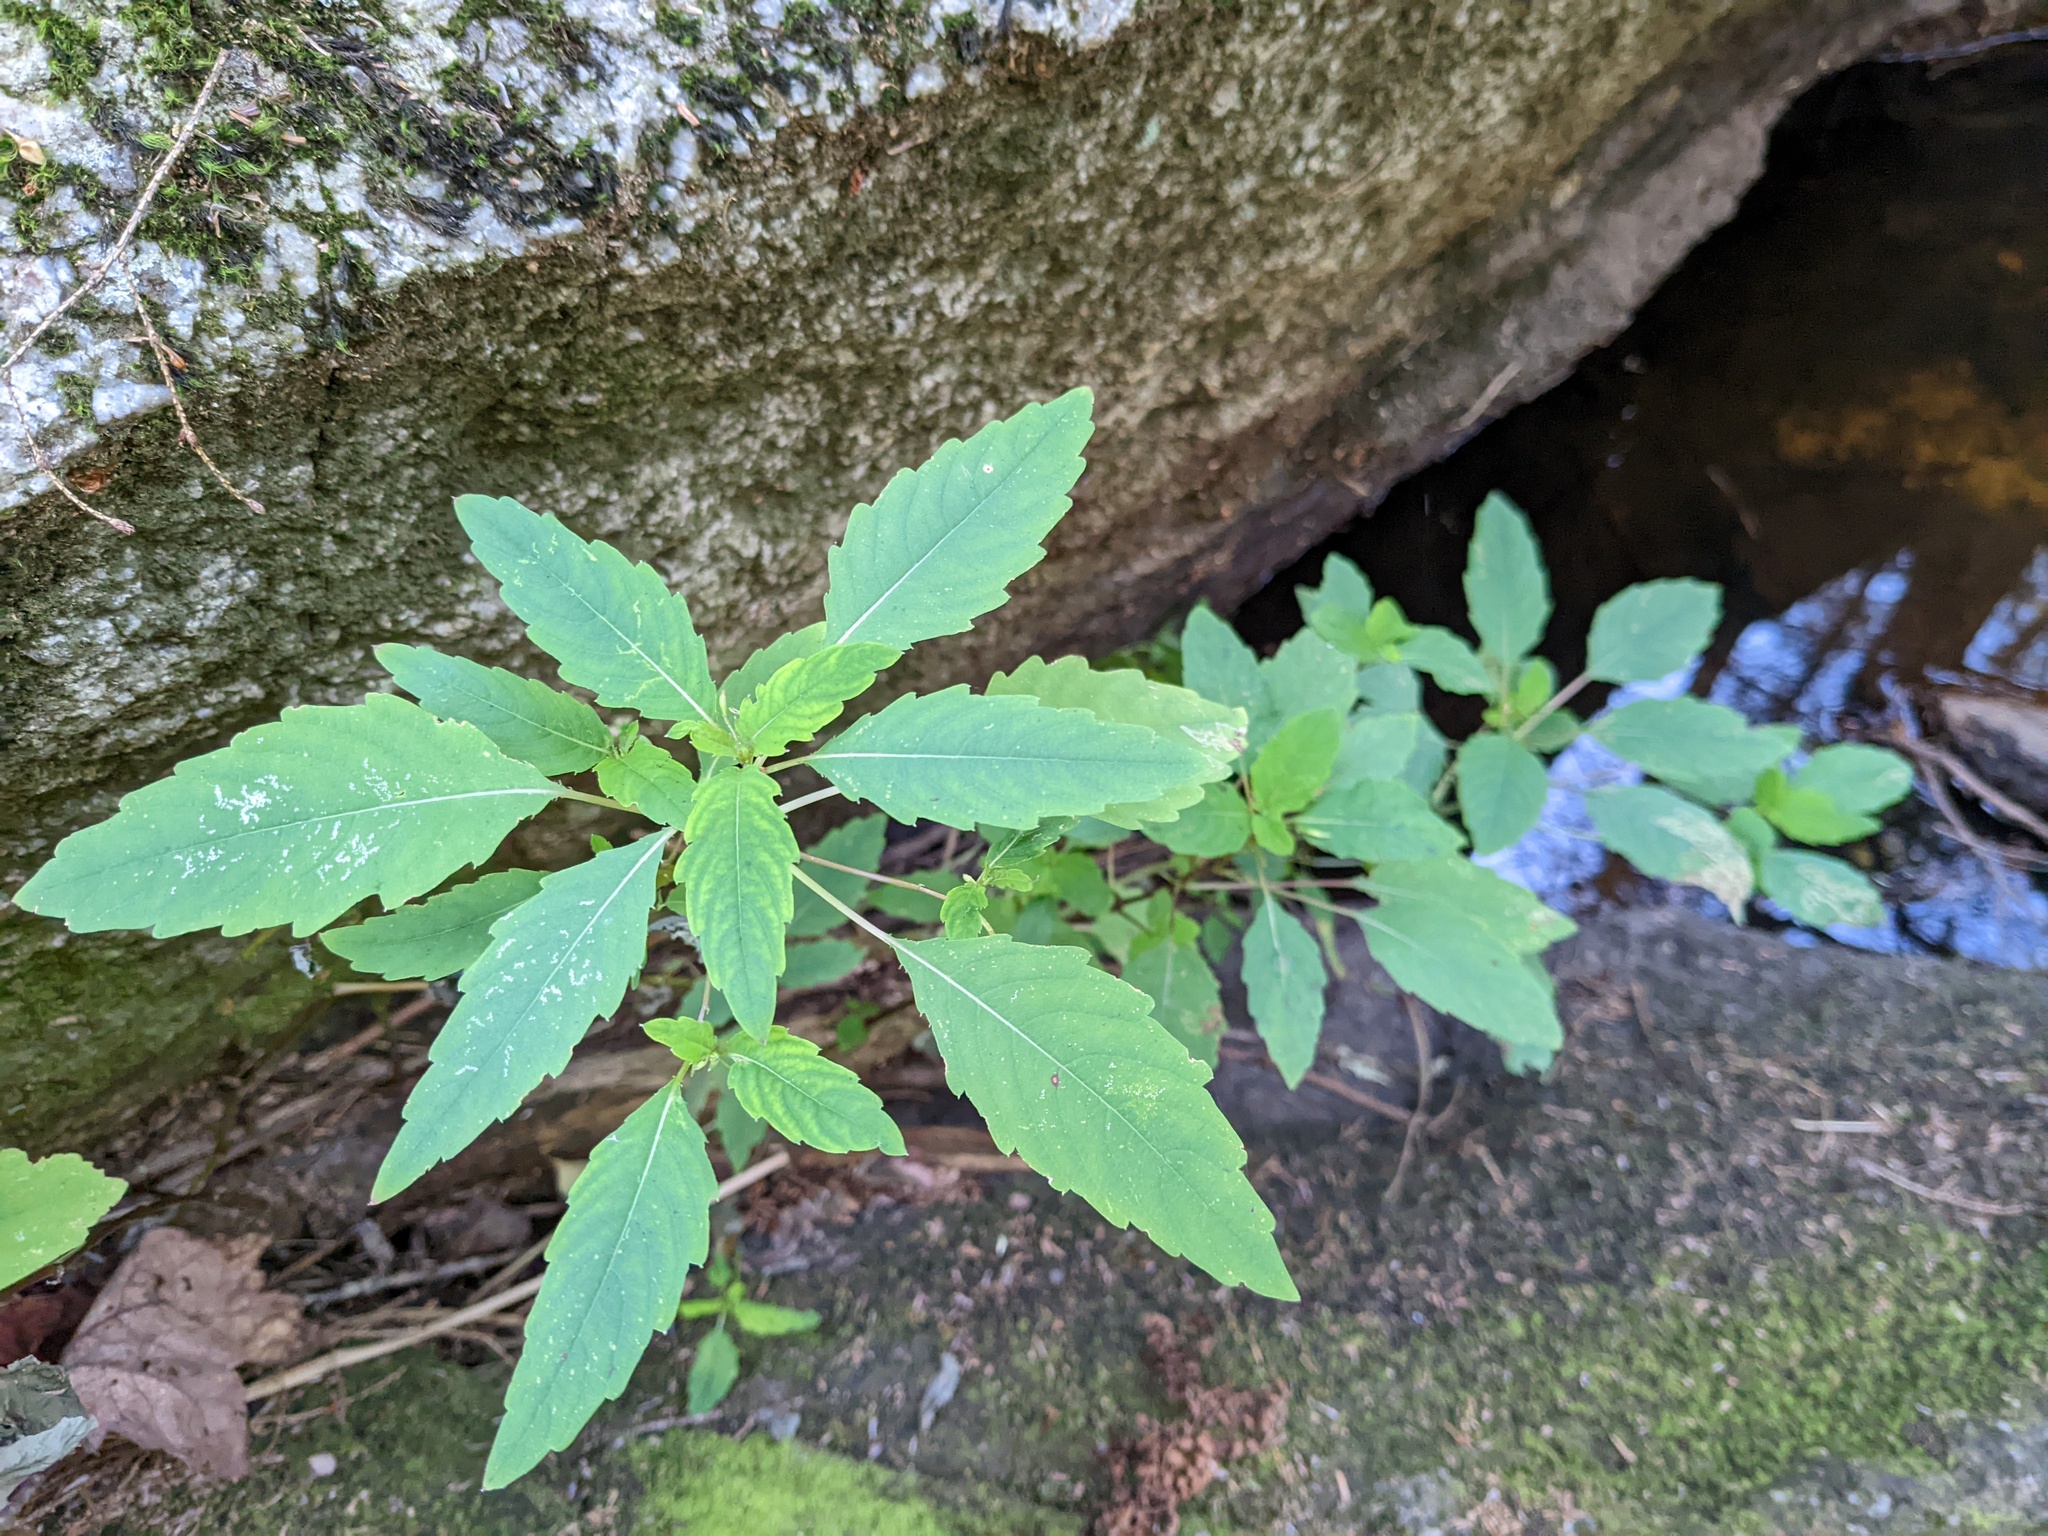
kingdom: Plantae
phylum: Tracheophyta
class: Magnoliopsida
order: Ericales
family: Balsaminaceae
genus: Impatiens
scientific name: Impatiens capensis
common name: Orange balsam
